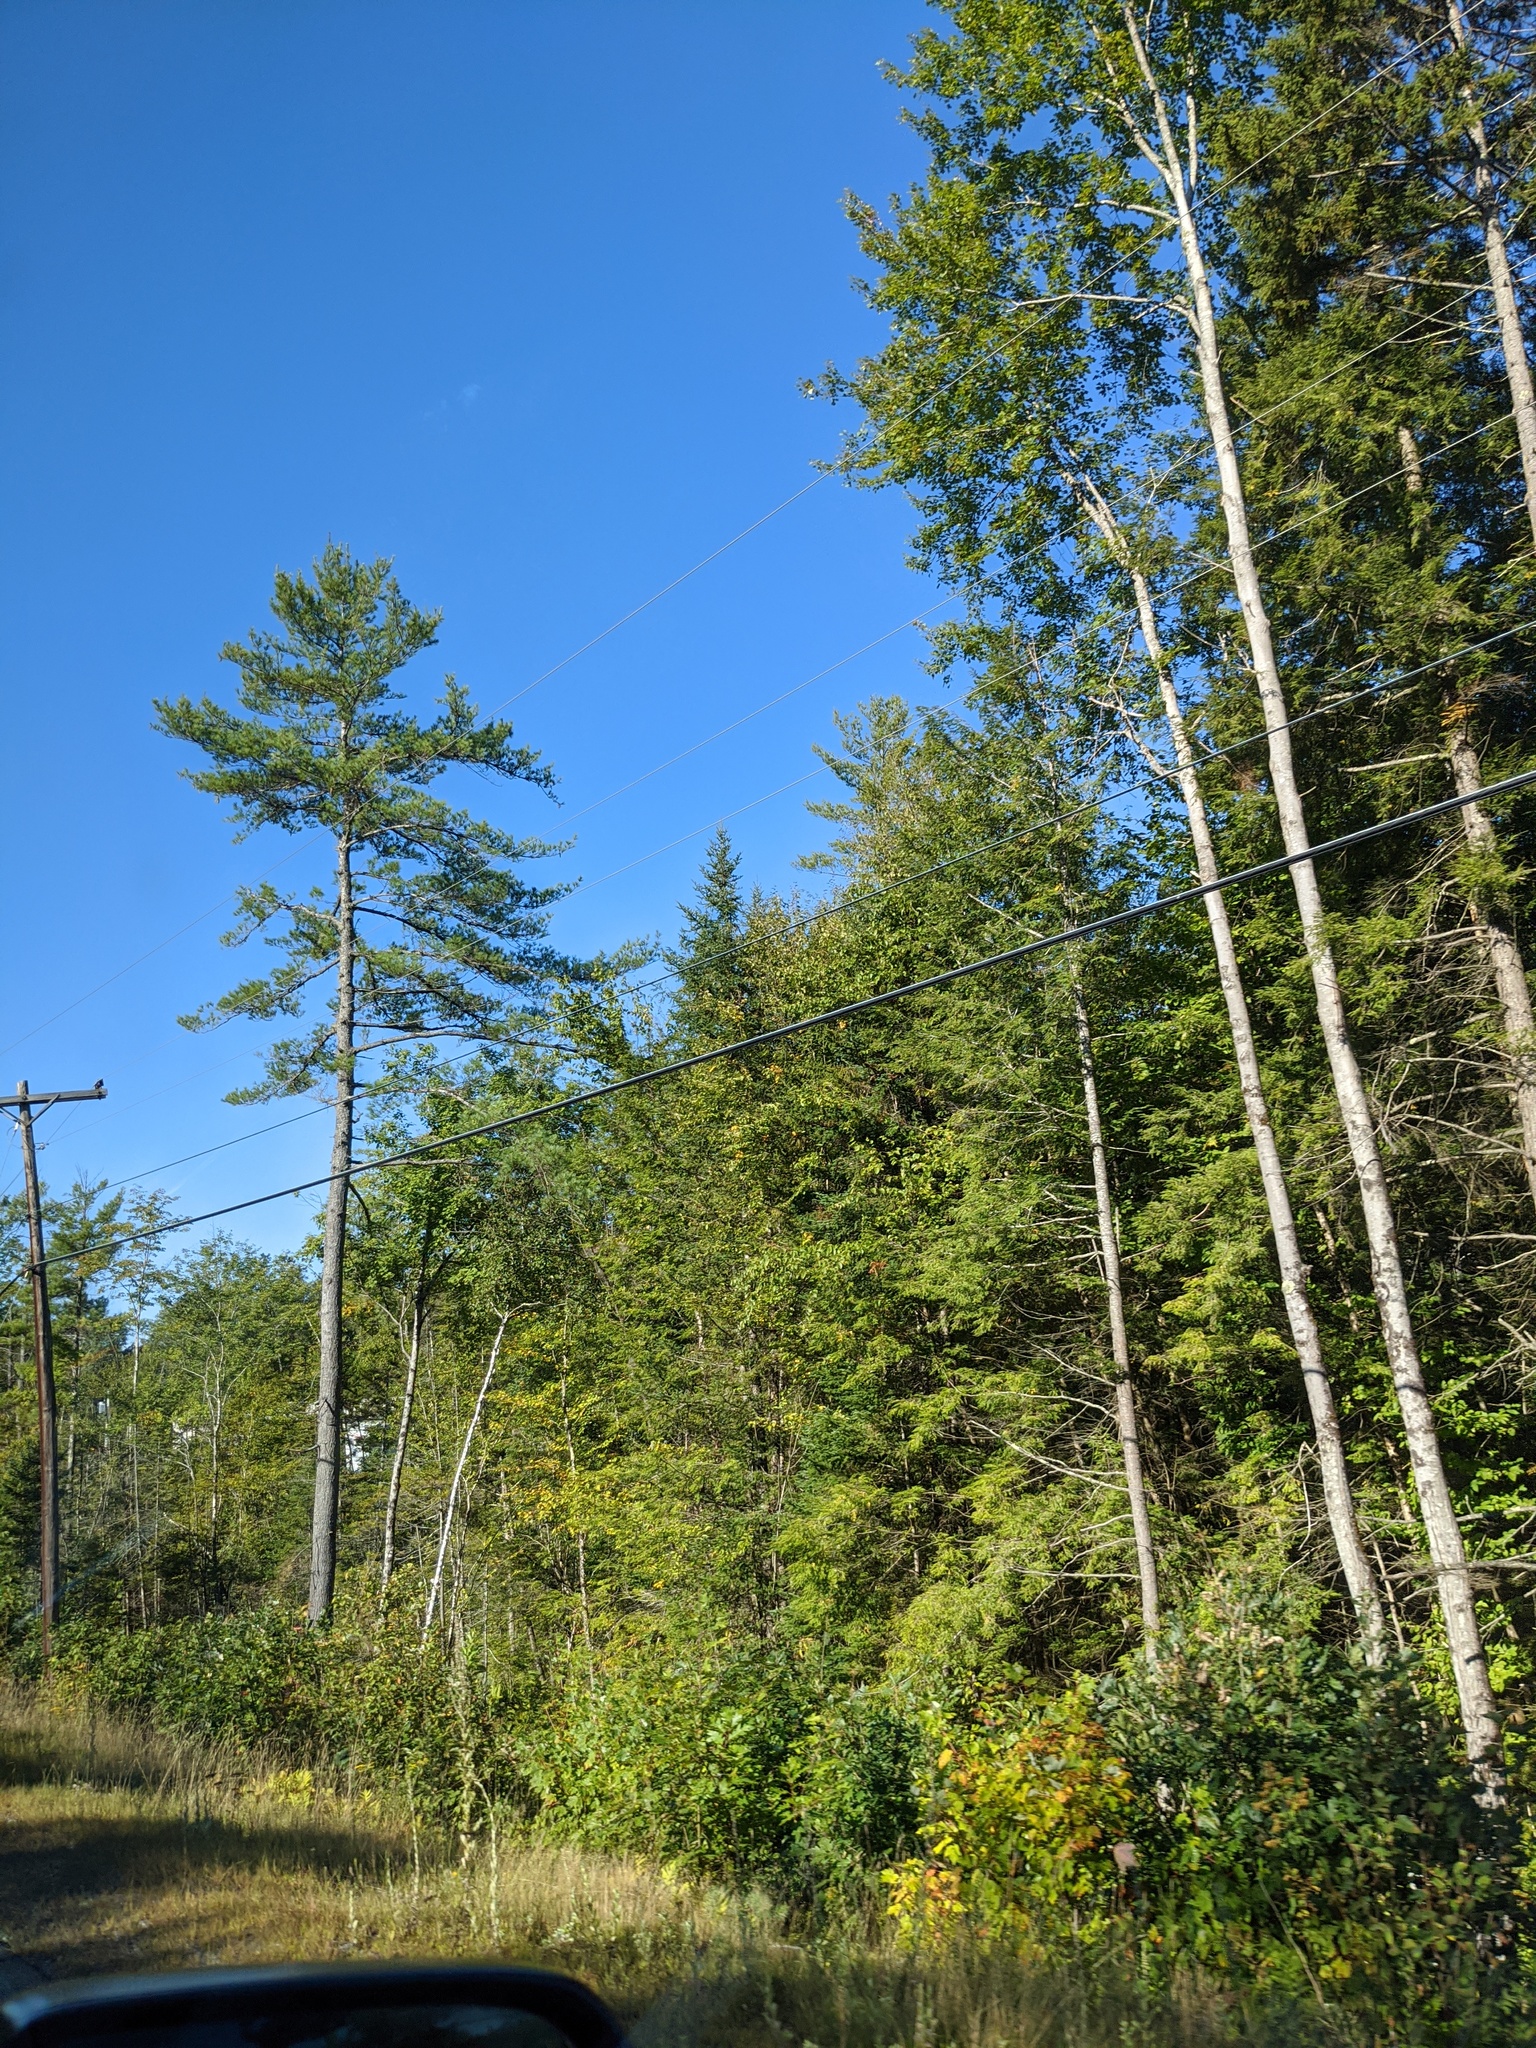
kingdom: Plantae
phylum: Tracheophyta
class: Pinopsida
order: Pinales
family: Pinaceae
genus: Pinus
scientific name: Pinus strobus
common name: Weymouth pine
